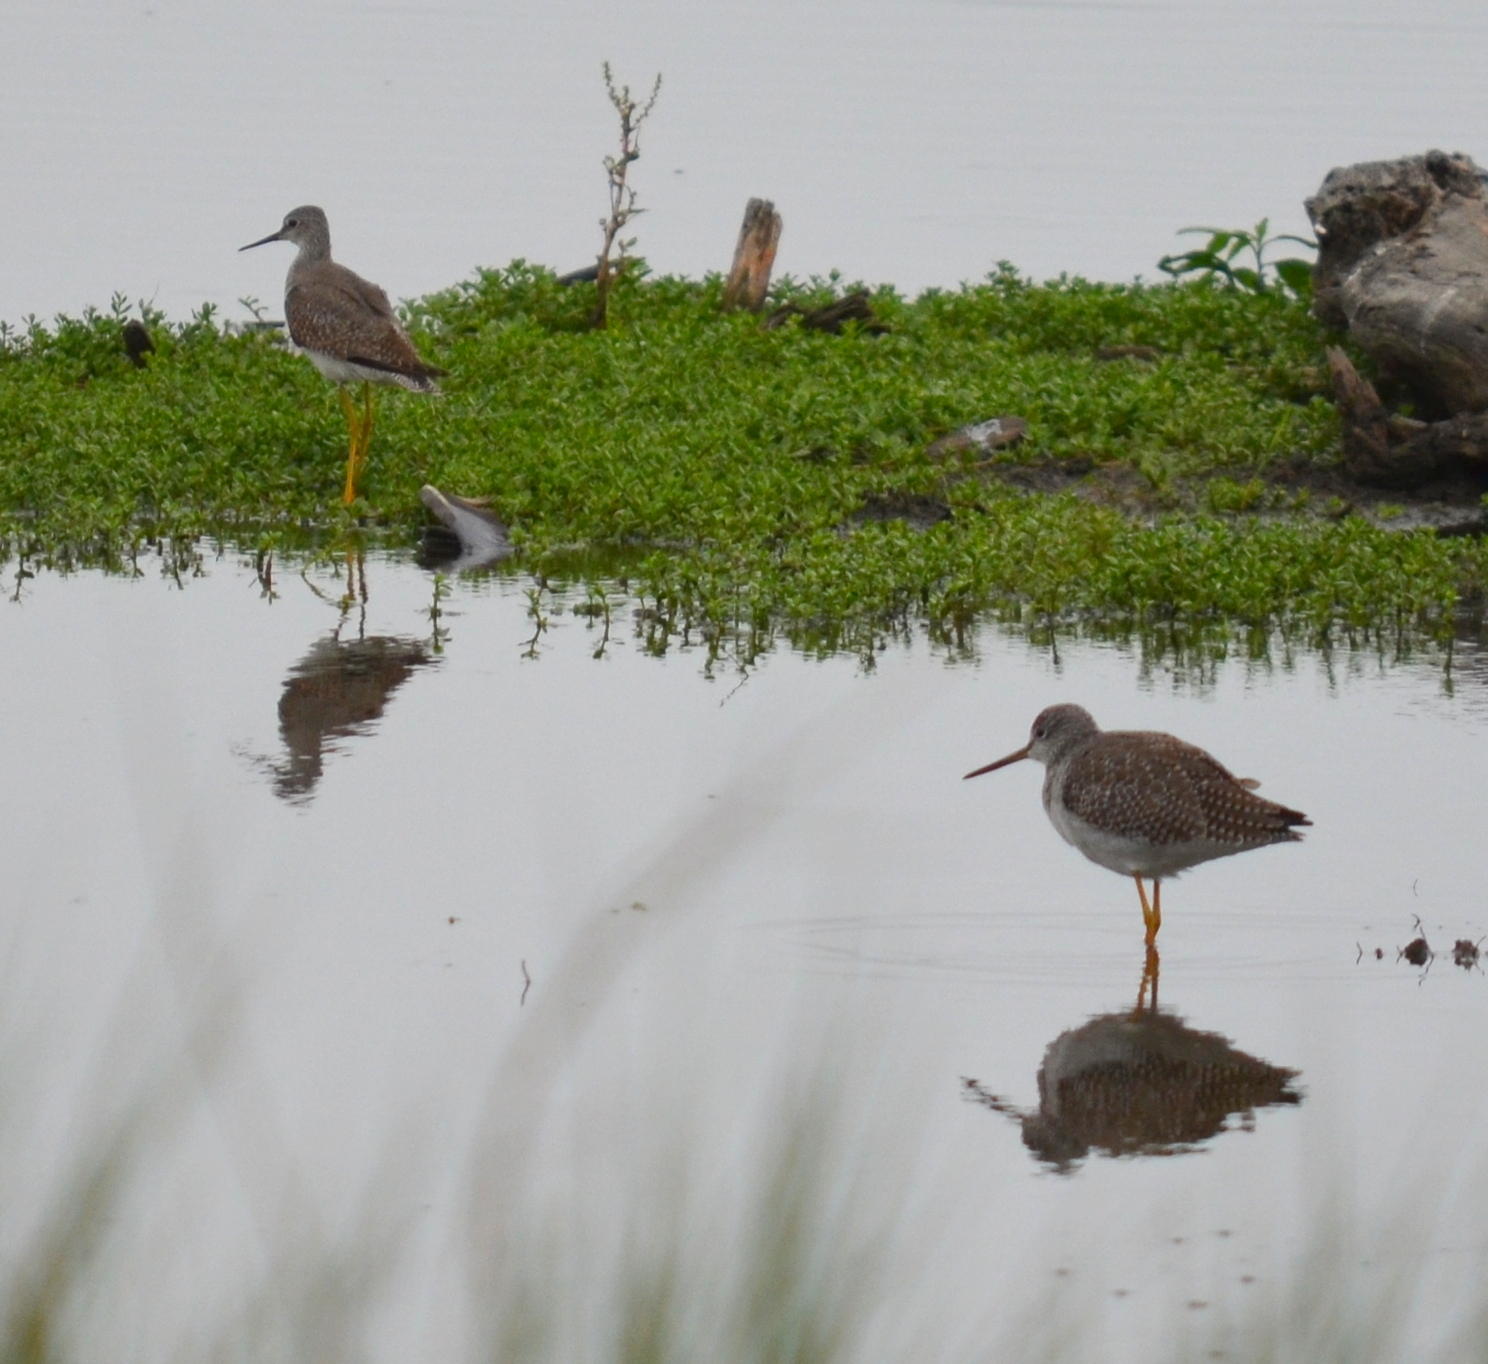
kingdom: Animalia
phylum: Chordata
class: Aves
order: Charadriiformes
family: Scolopacidae
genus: Tringa
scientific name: Tringa melanoleuca
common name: Greater yellowlegs
